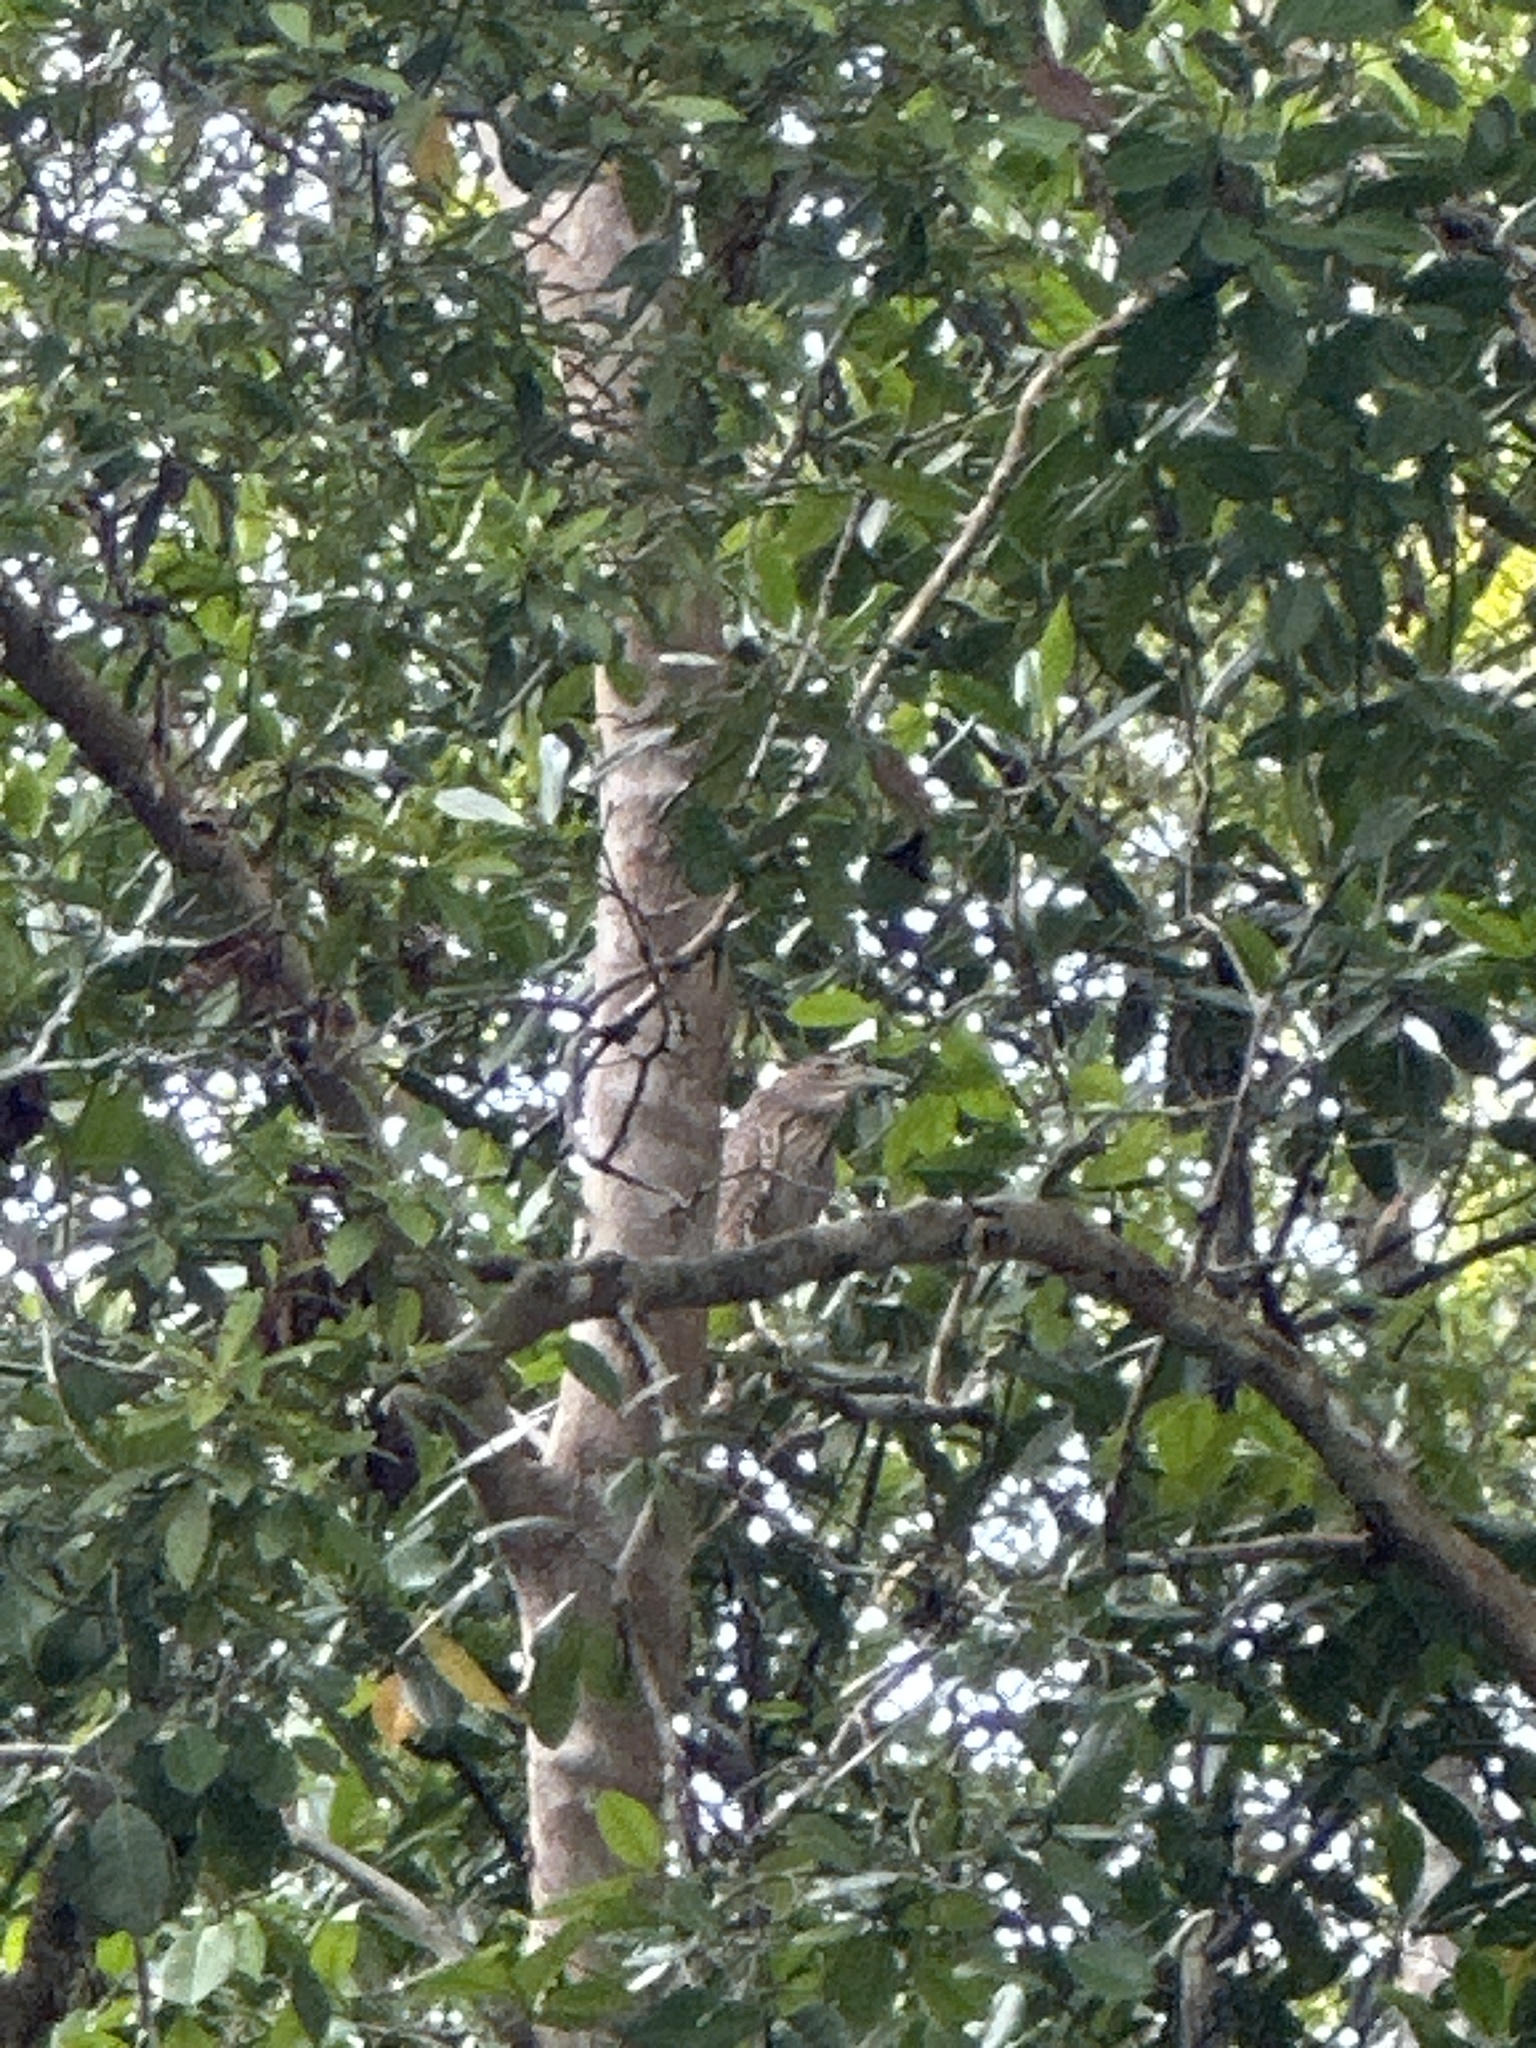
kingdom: Animalia
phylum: Chordata
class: Aves
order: Pelecaniformes
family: Ardeidae
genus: Nycticorax
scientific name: Nycticorax caledonicus
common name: Rufous night-heron
